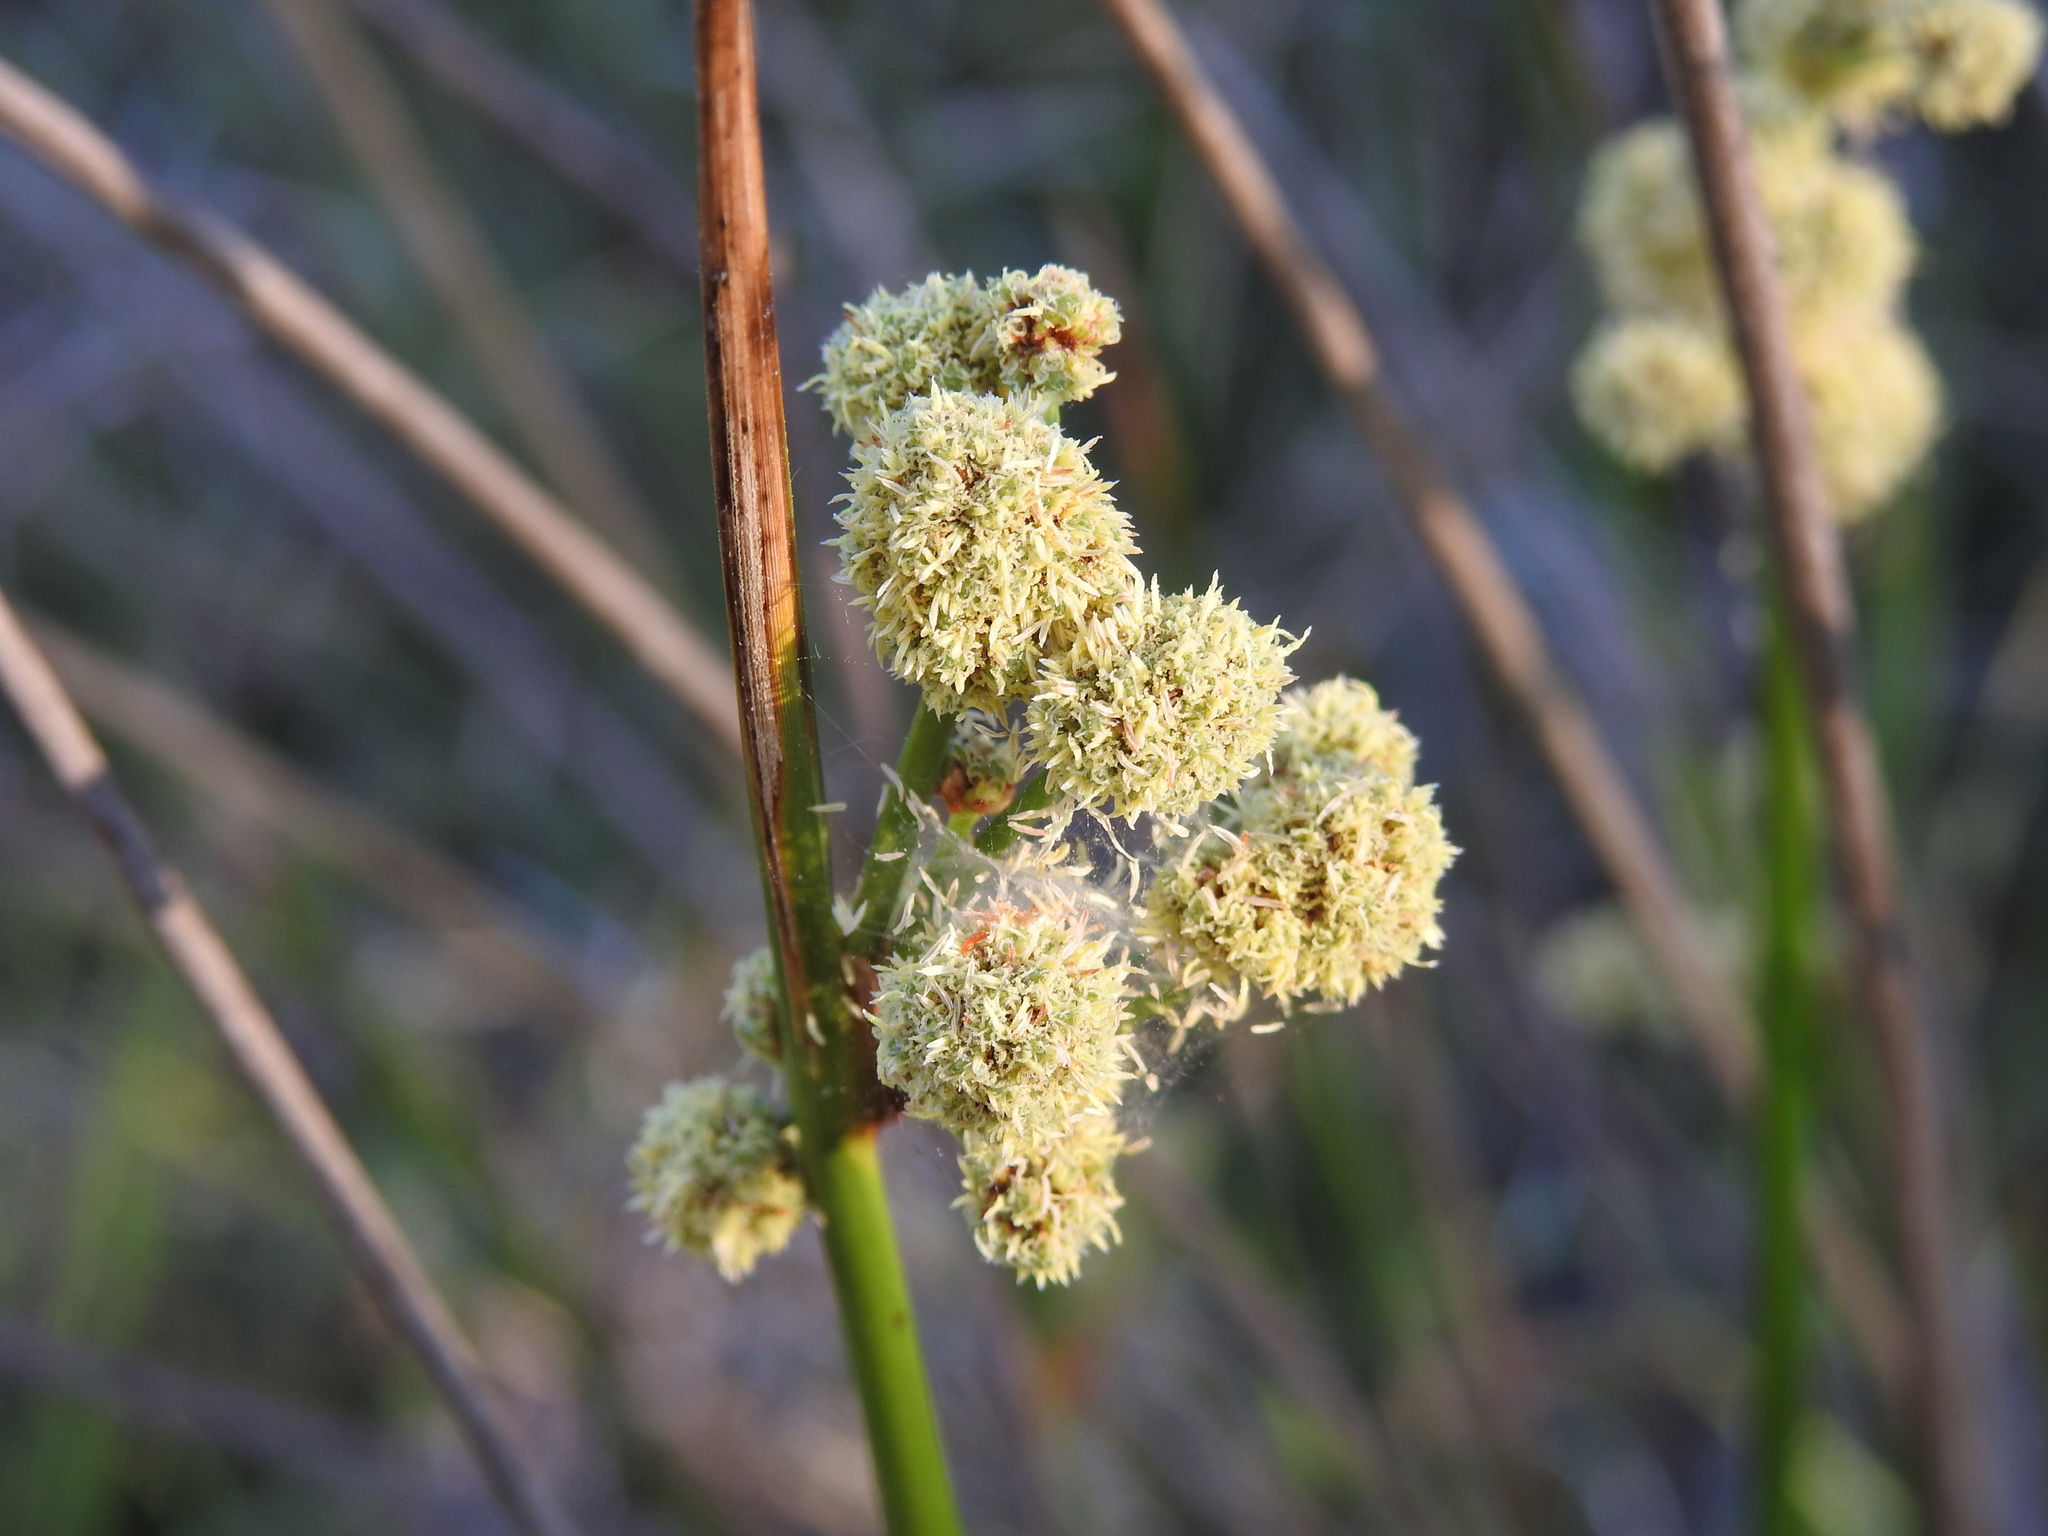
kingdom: Plantae
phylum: Tracheophyta
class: Liliopsida
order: Poales
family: Cyperaceae
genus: Scirpoides
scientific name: Scirpoides holoschoenus
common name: Round-headed club-rush
